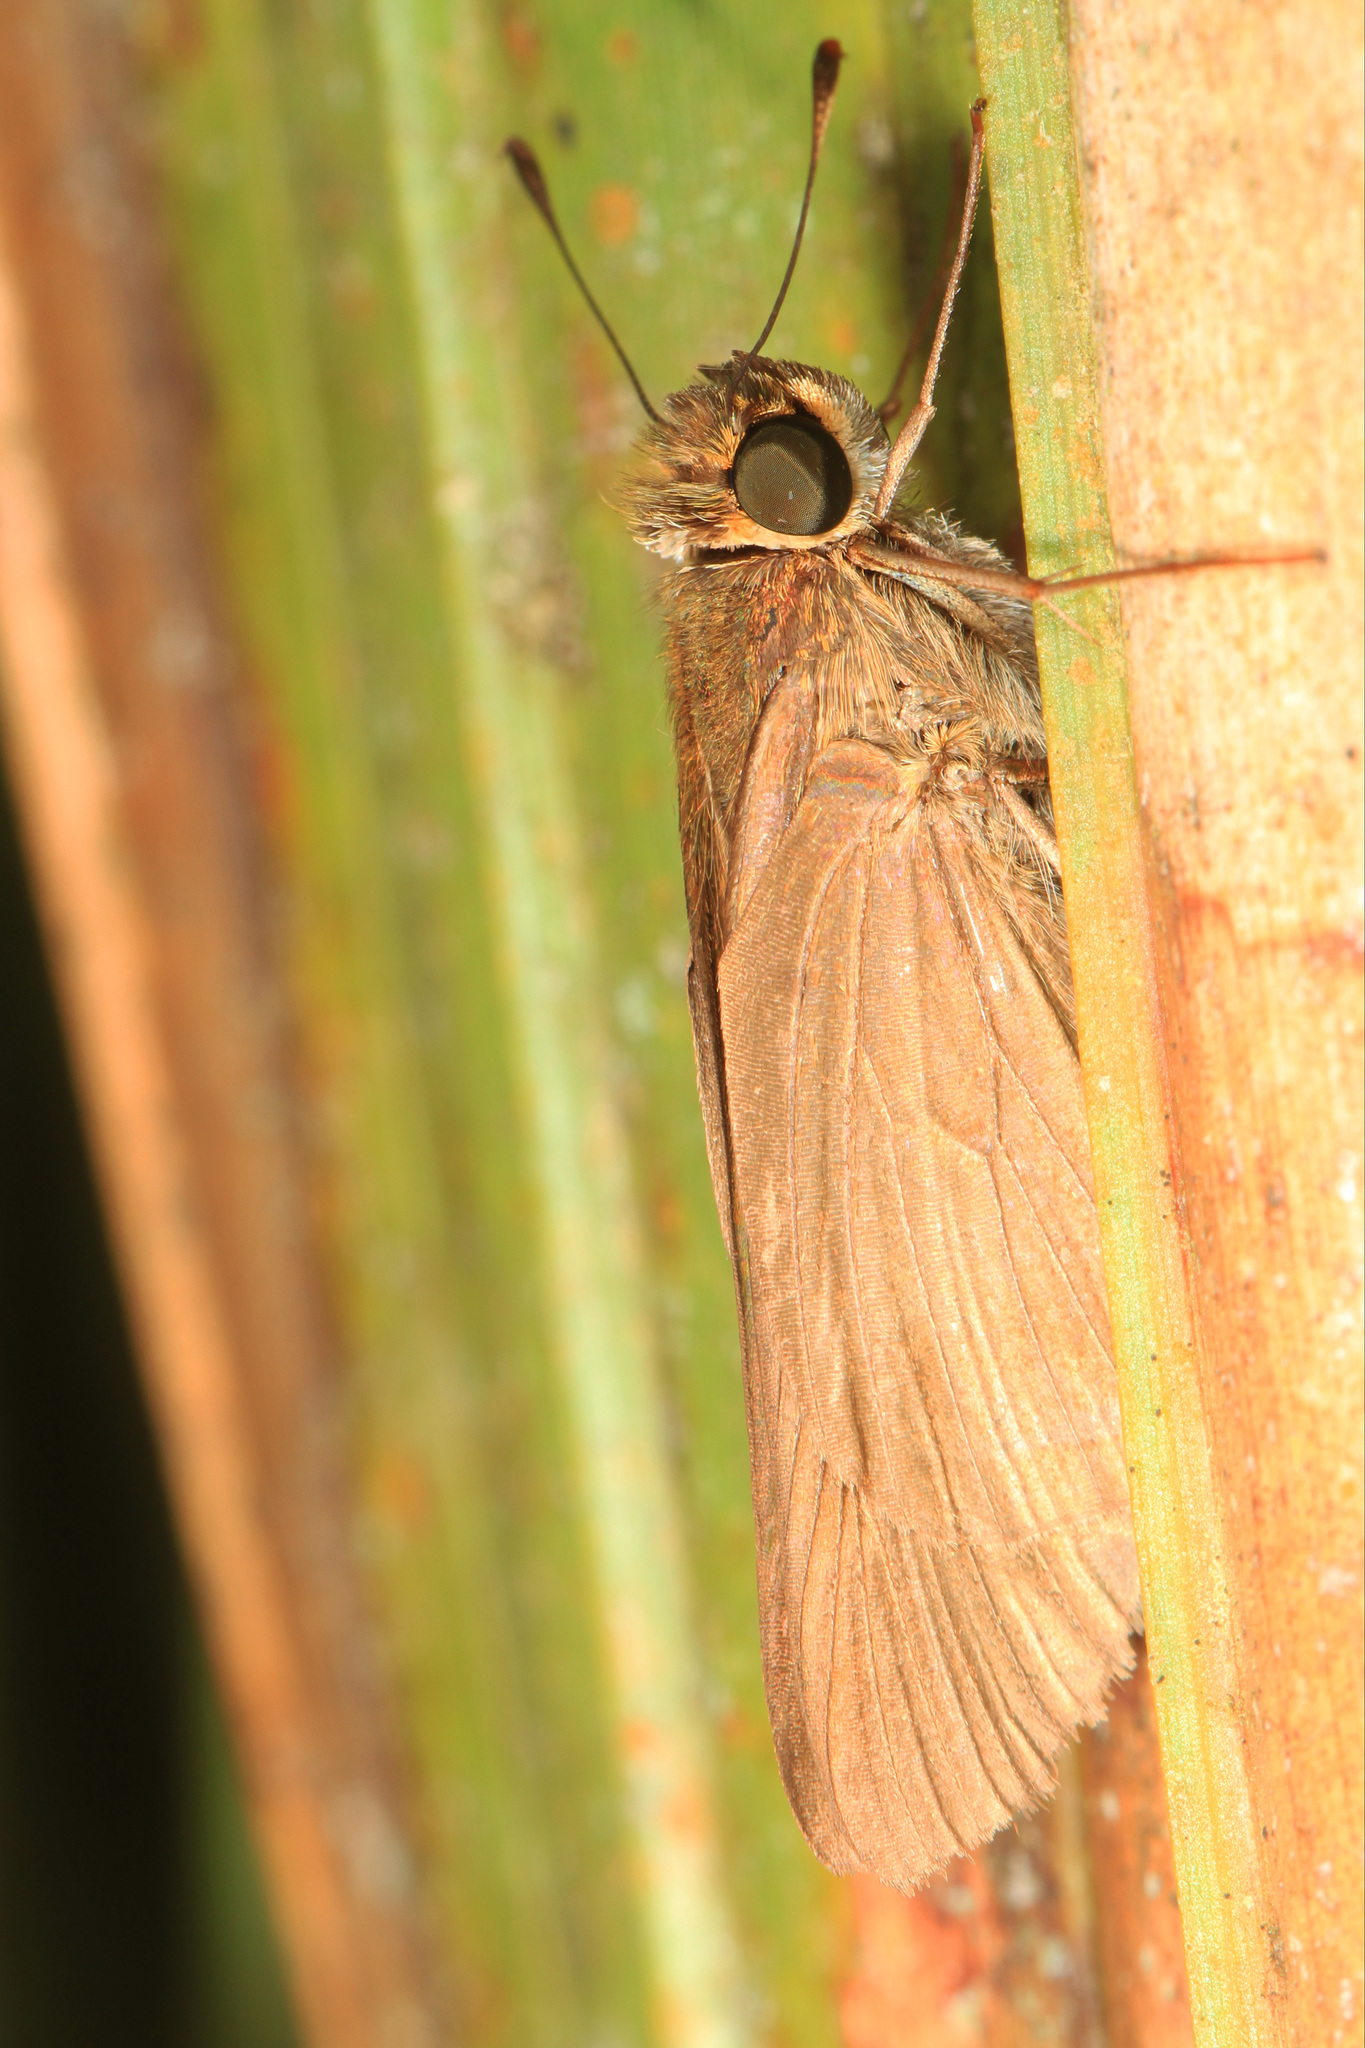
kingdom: Animalia
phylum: Arthropoda
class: Insecta
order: Lepidoptera
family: Hesperiidae
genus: Panoquina
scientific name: Panoquina ocola
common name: Ocola skipper
